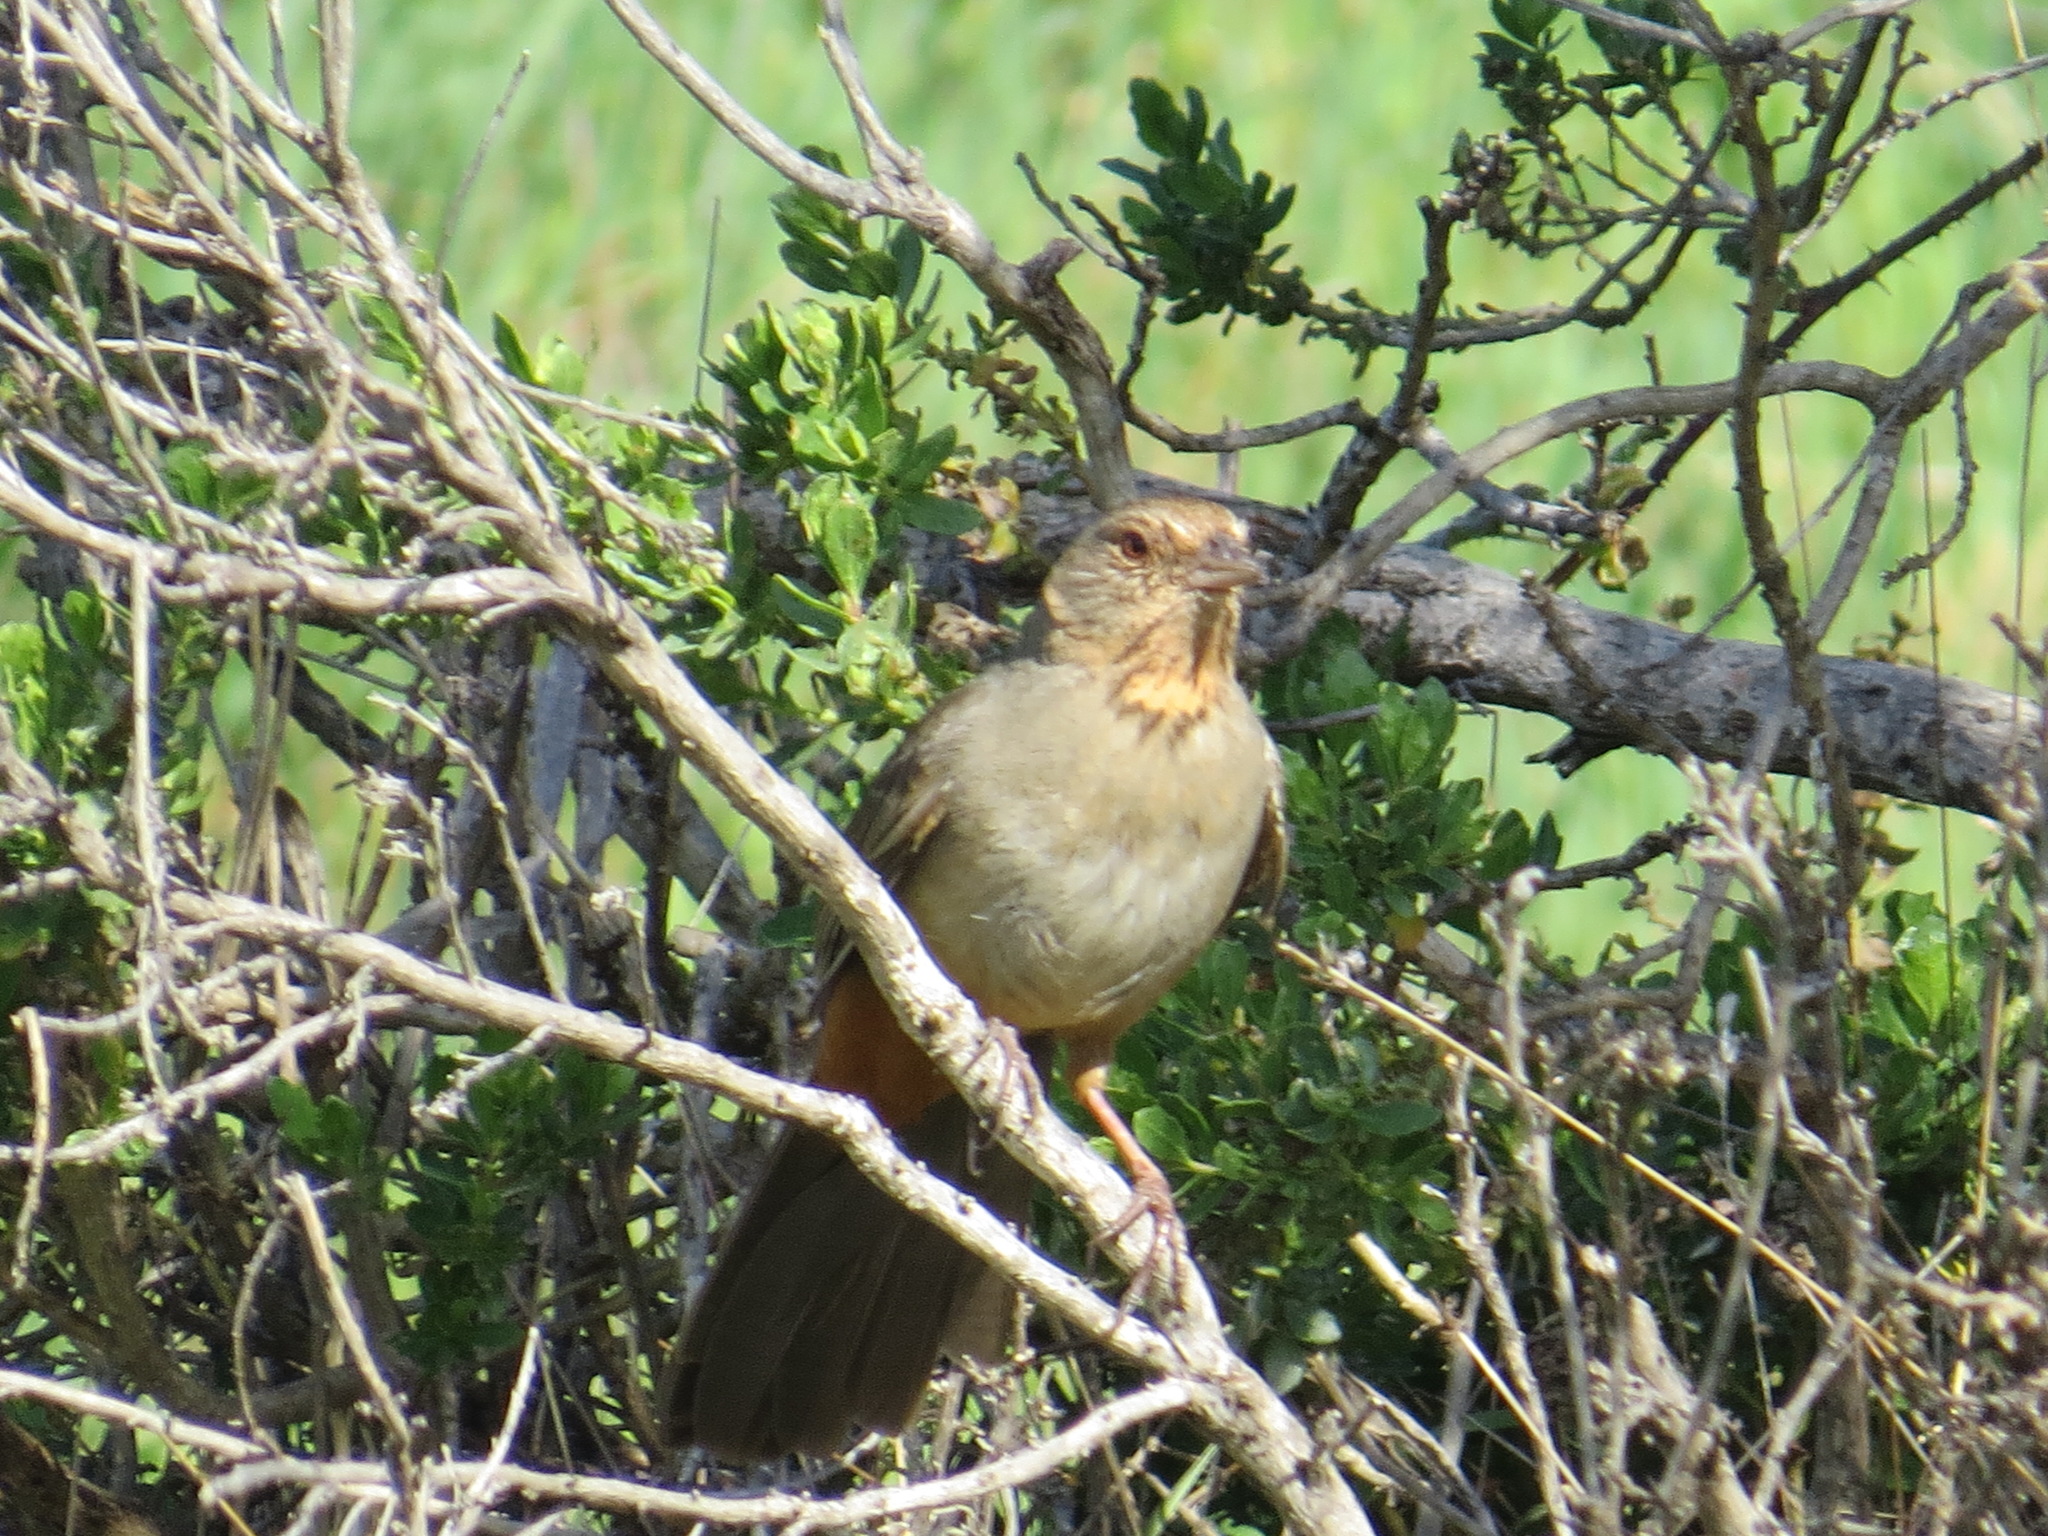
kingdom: Animalia
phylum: Chordata
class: Aves
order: Passeriformes
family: Passerellidae
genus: Melozone
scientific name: Melozone crissalis
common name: California towhee
